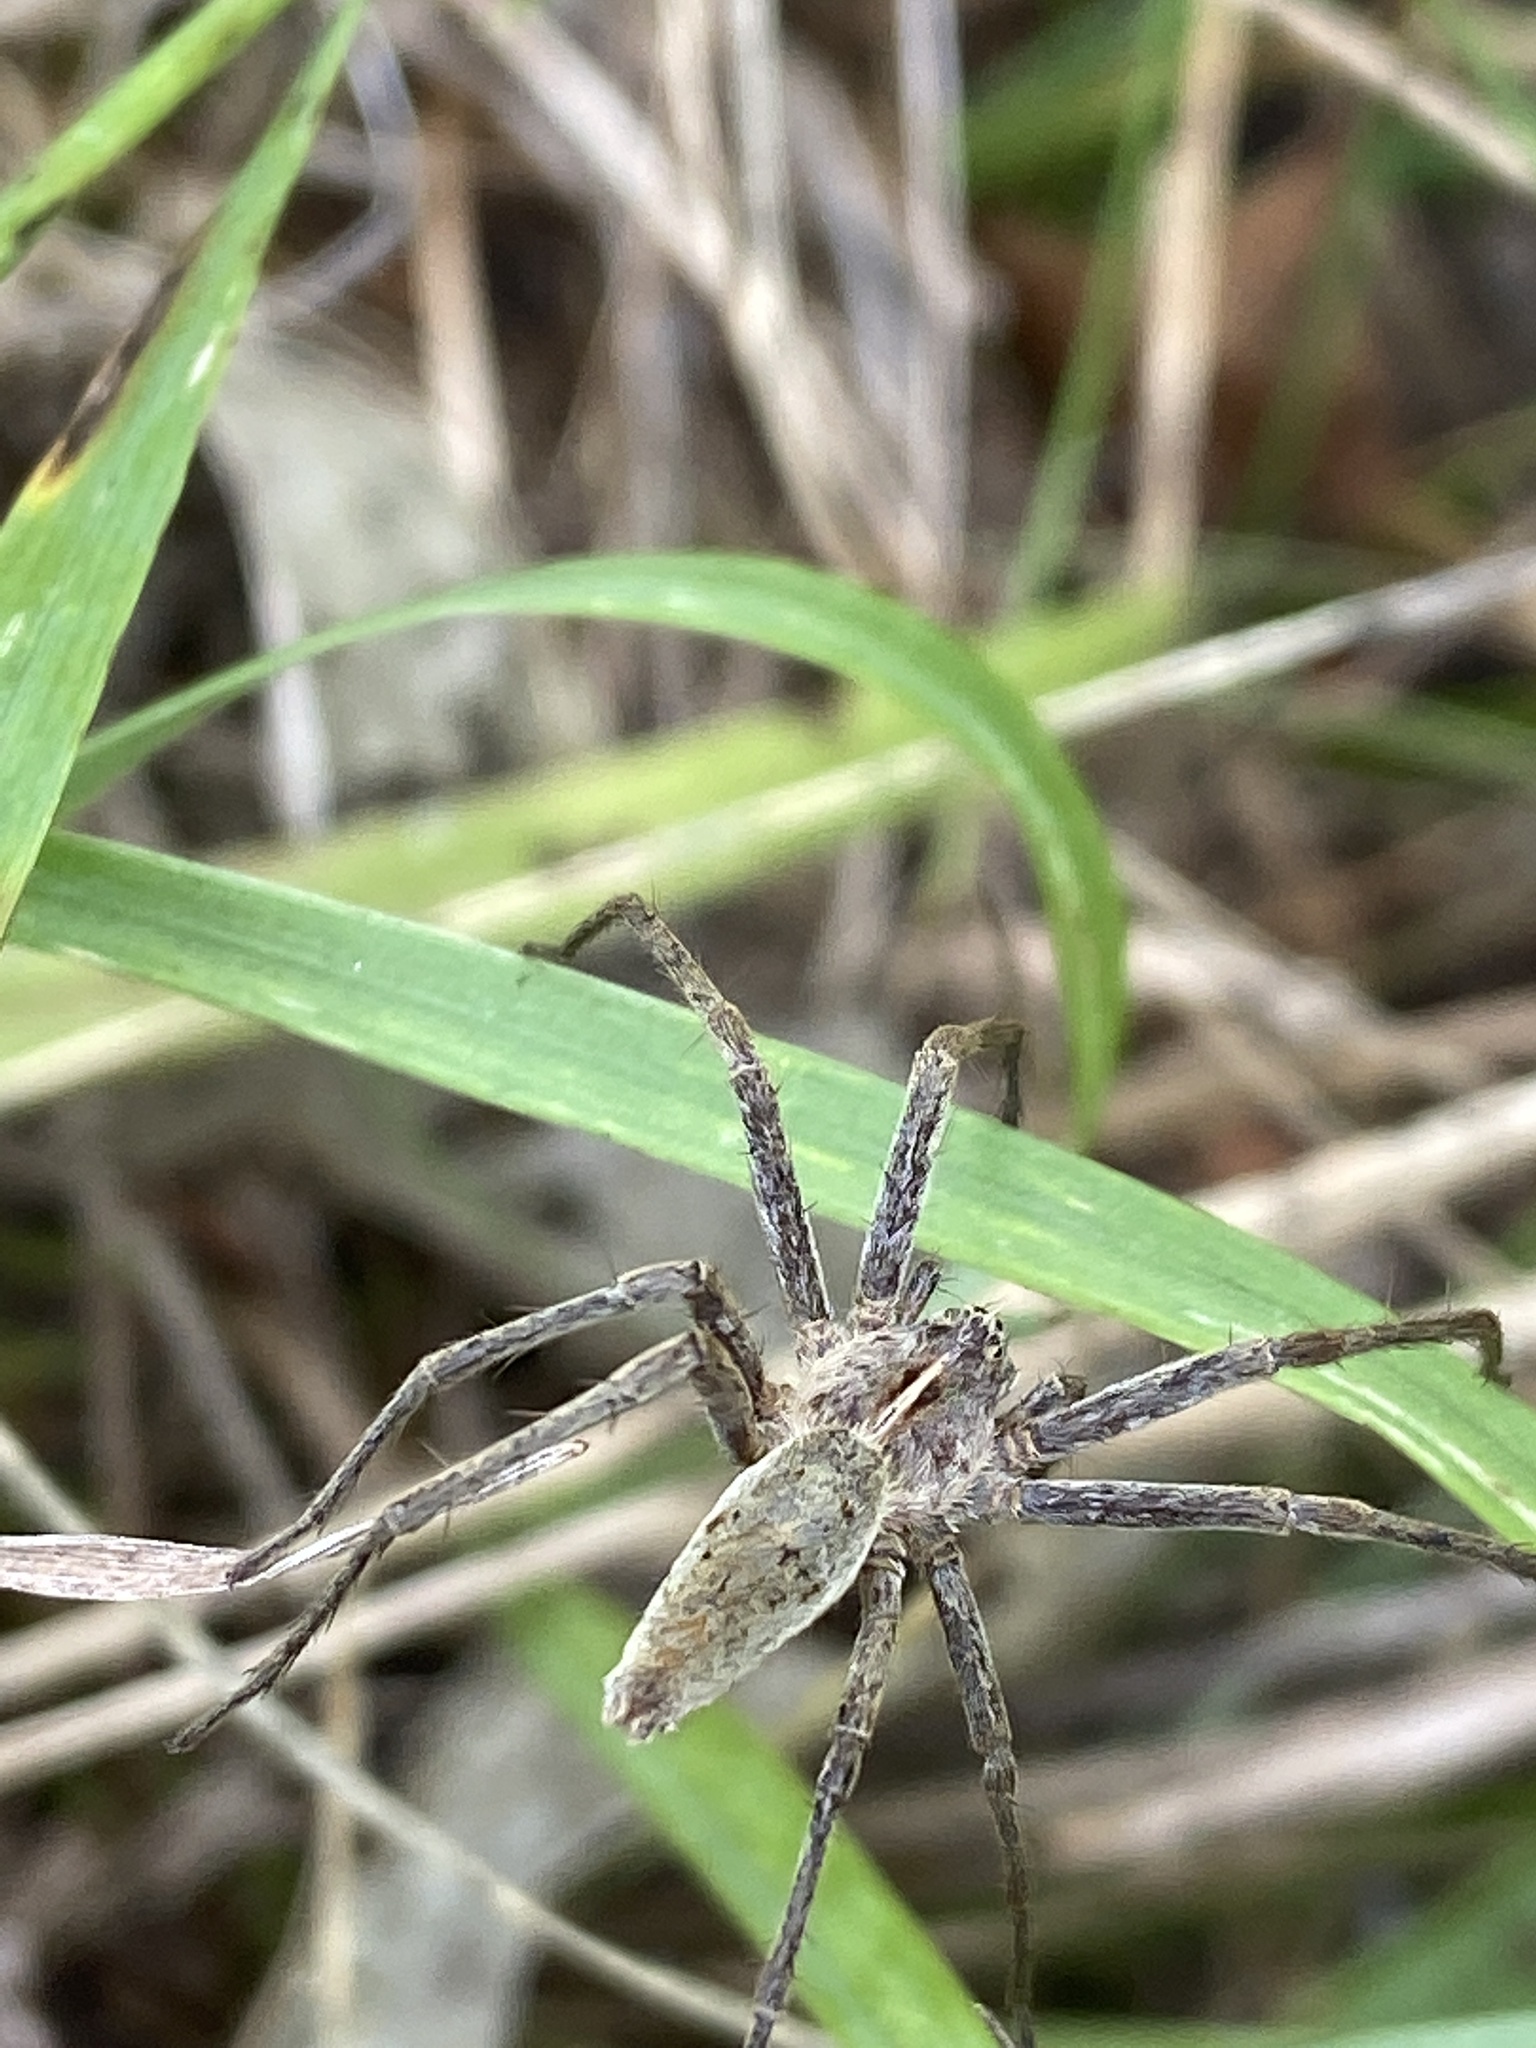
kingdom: Animalia
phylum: Arthropoda
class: Arachnida
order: Araneae
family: Pisauridae
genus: Pisaura
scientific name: Pisaura mirabilis
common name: Tent spider
